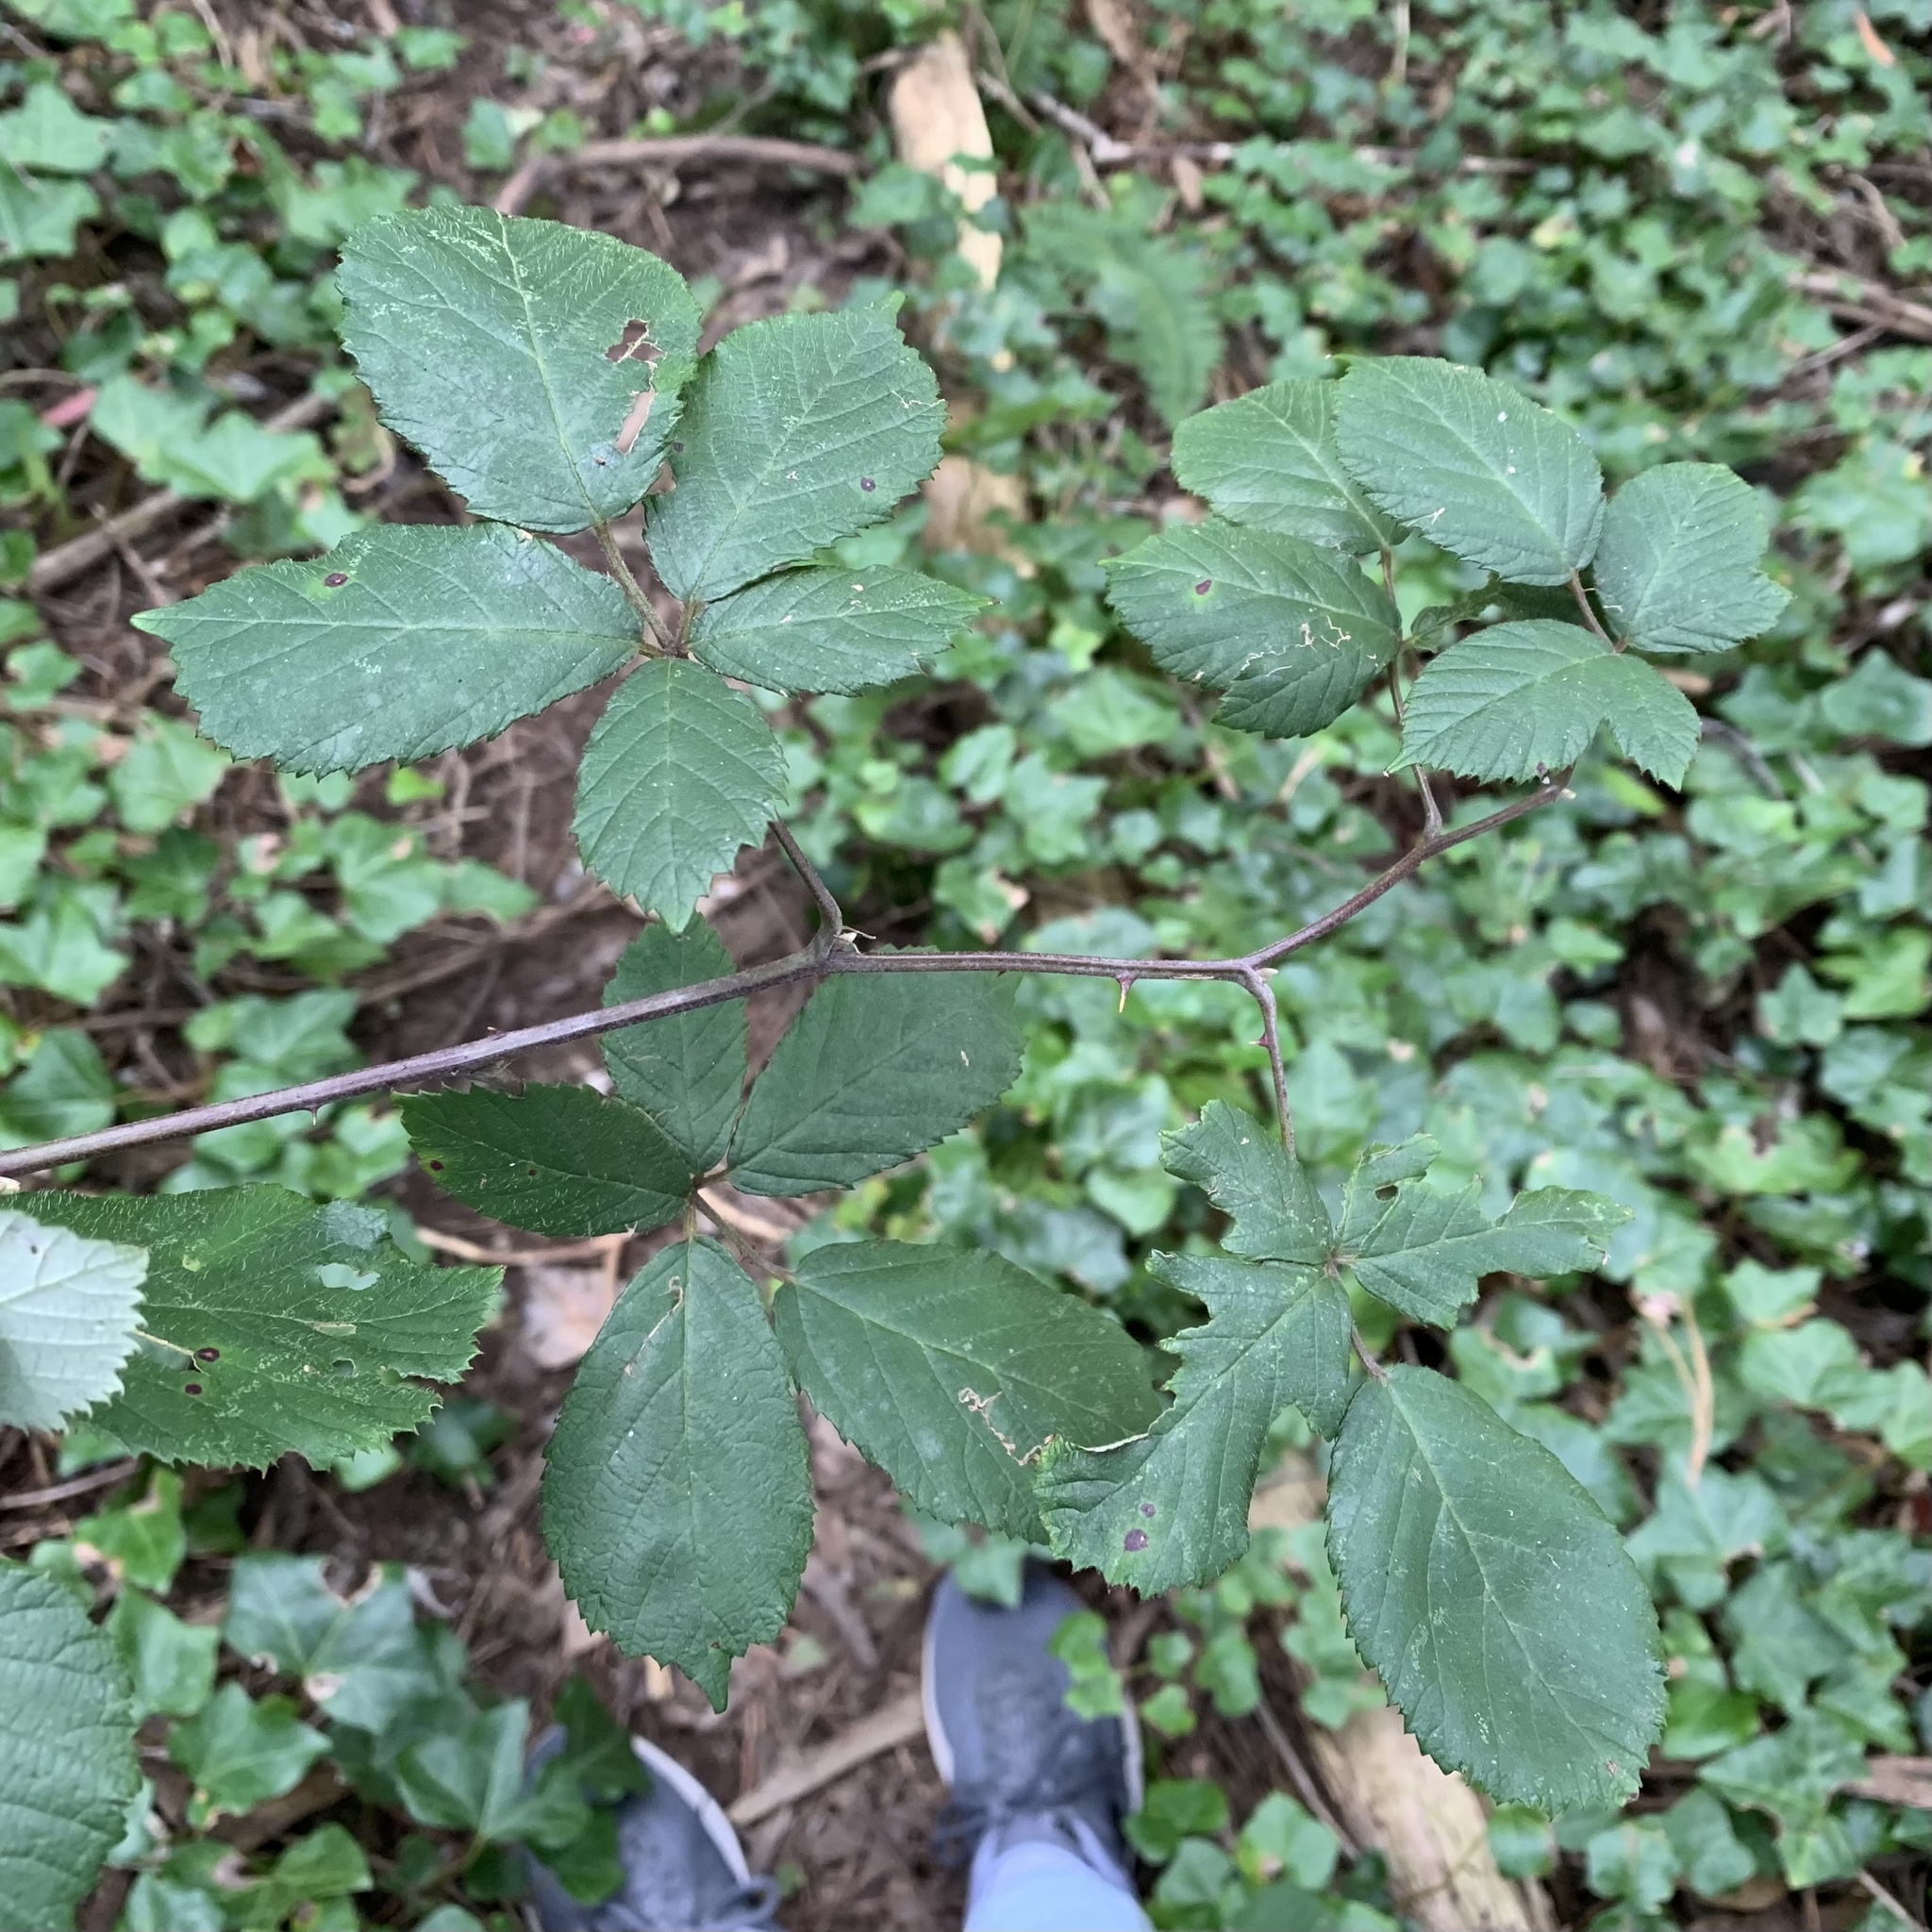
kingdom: Plantae
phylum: Tracheophyta
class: Magnoliopsida
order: Rosales
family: Rosaceae
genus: Rubus
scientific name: Rubus armeniacus
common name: Himalayan blackberry
